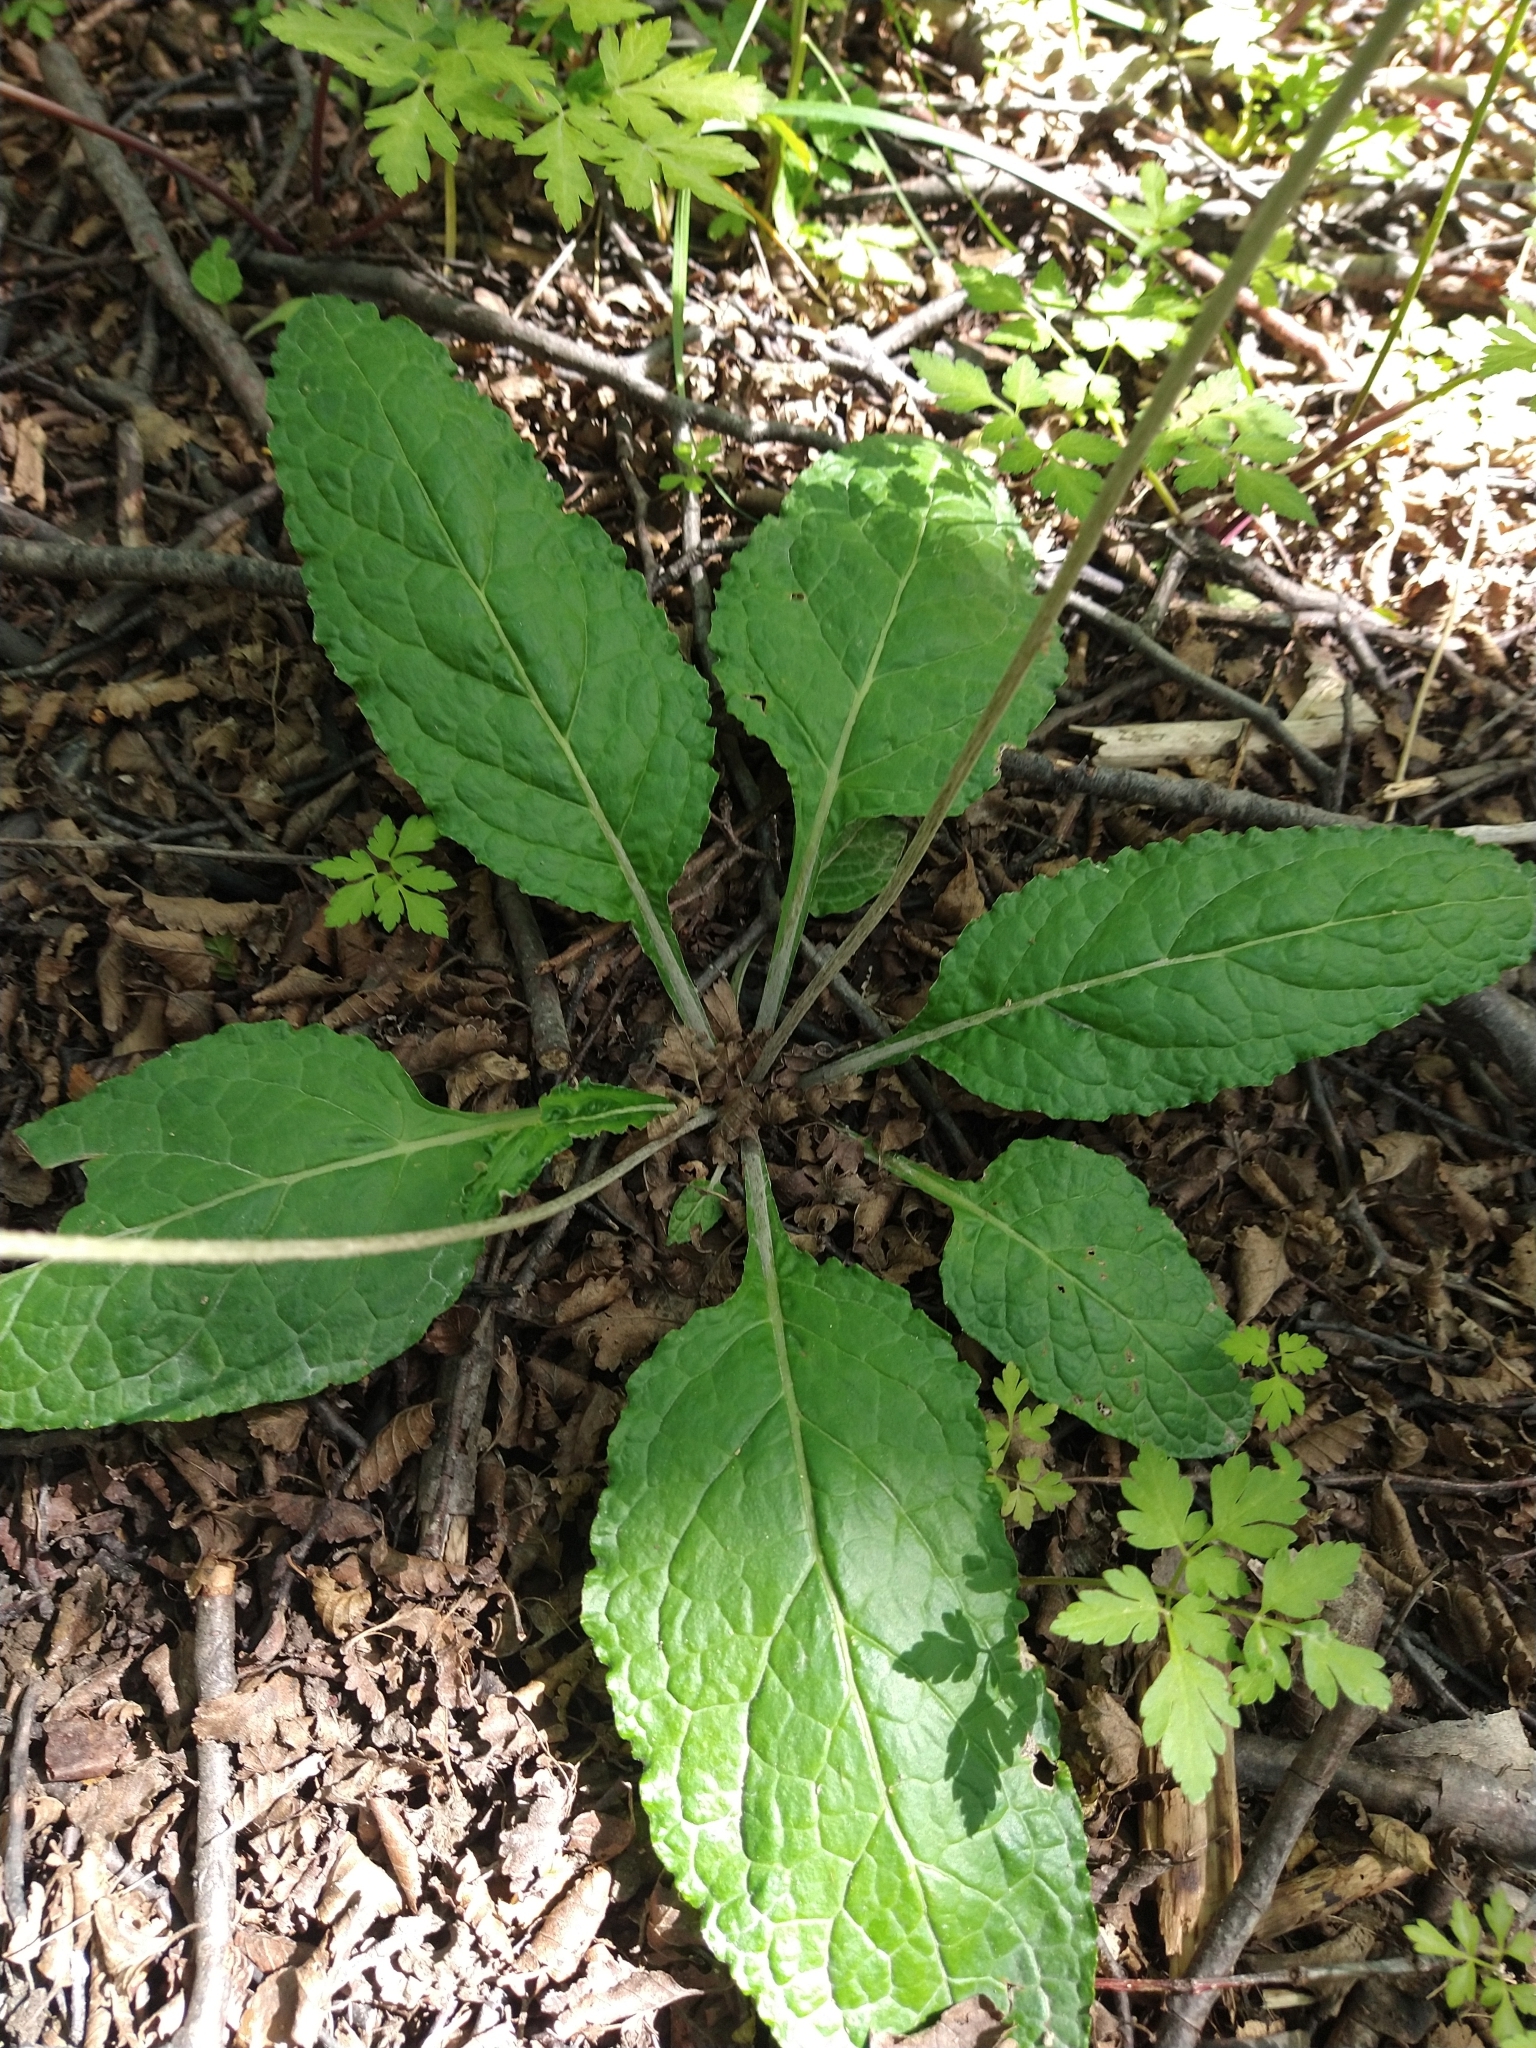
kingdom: Plantae
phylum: Tracheophyta
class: Magnoliopsida
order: Asterales
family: Asteraceae
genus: Adenocaulon
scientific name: Adenocaulon chilense
